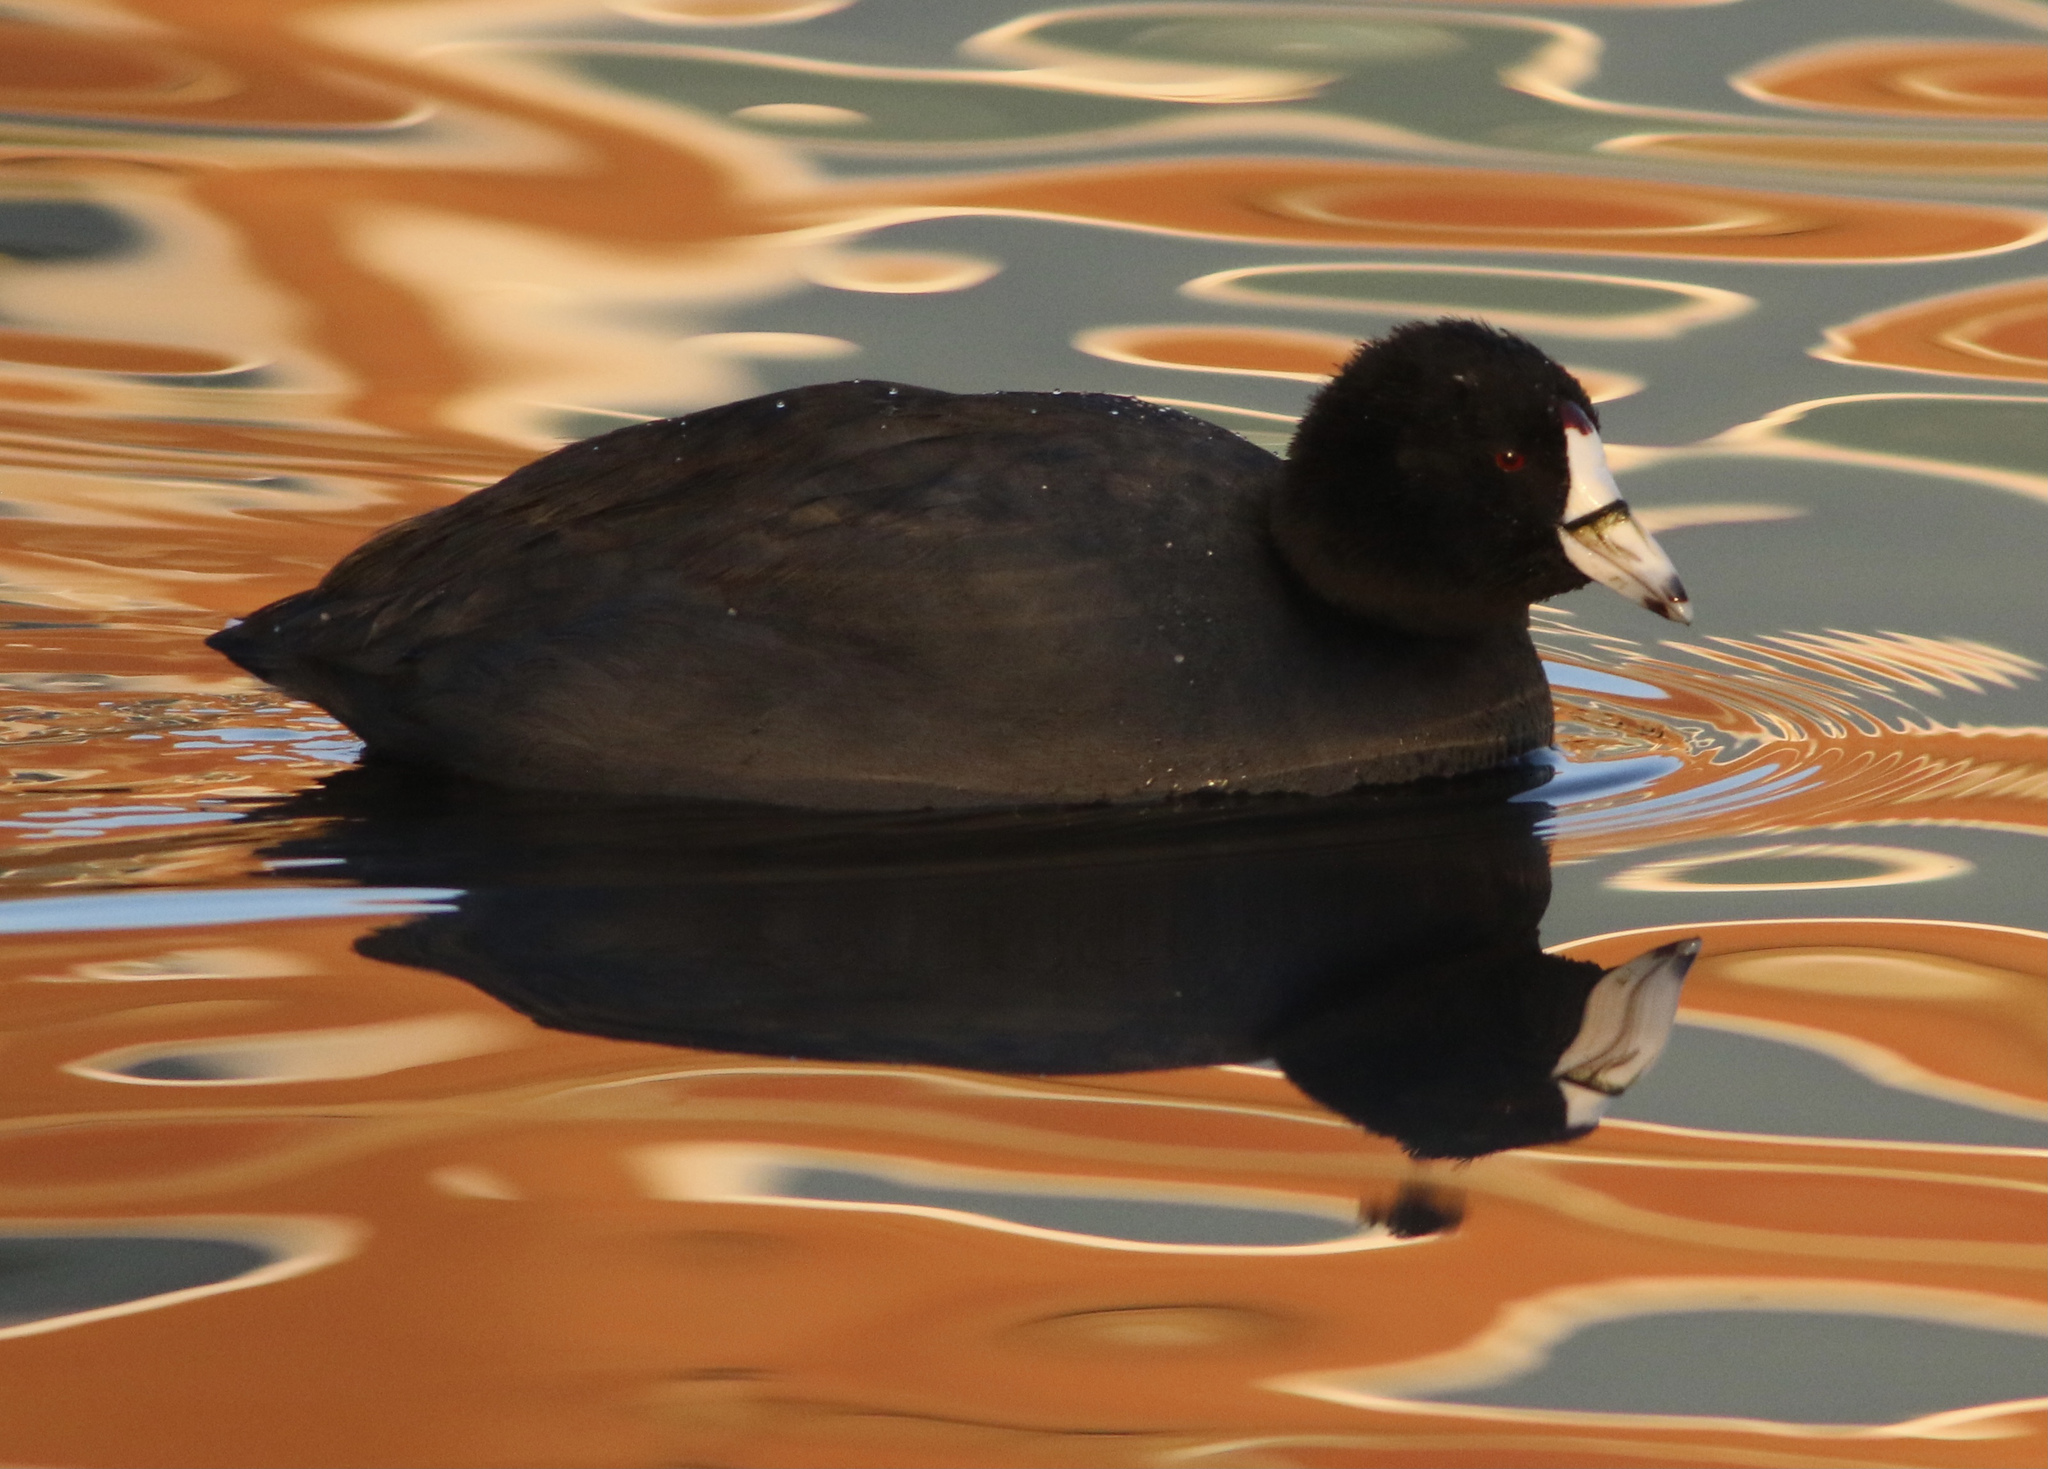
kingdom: Animalia
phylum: Chordata
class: Aves
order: Gruiformes
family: Rallidae
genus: Fulica
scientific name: Fulica americana
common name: American coot
